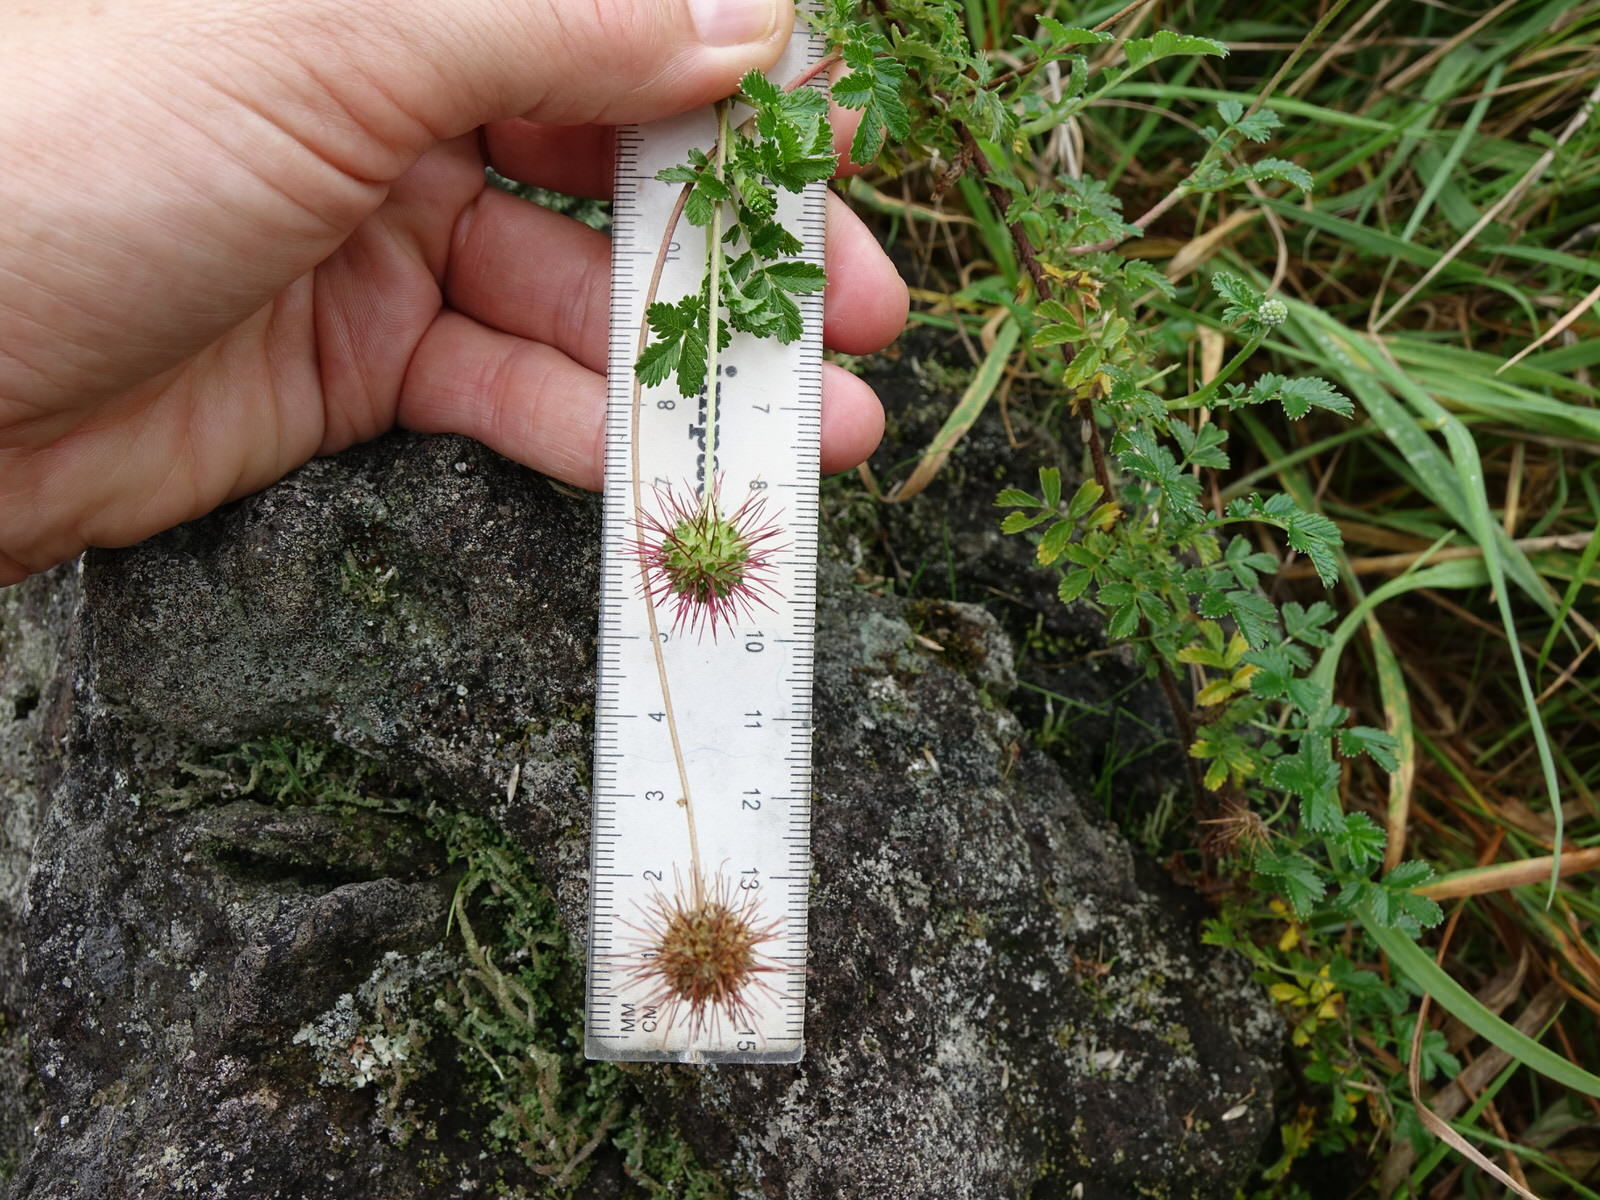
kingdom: Plantae
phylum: Tracheophyta
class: Magnoliopsida
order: Rosales
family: Rosaceae
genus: Acaena
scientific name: Acaena novae-zelandiae
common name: Pirri-pirri-bur
